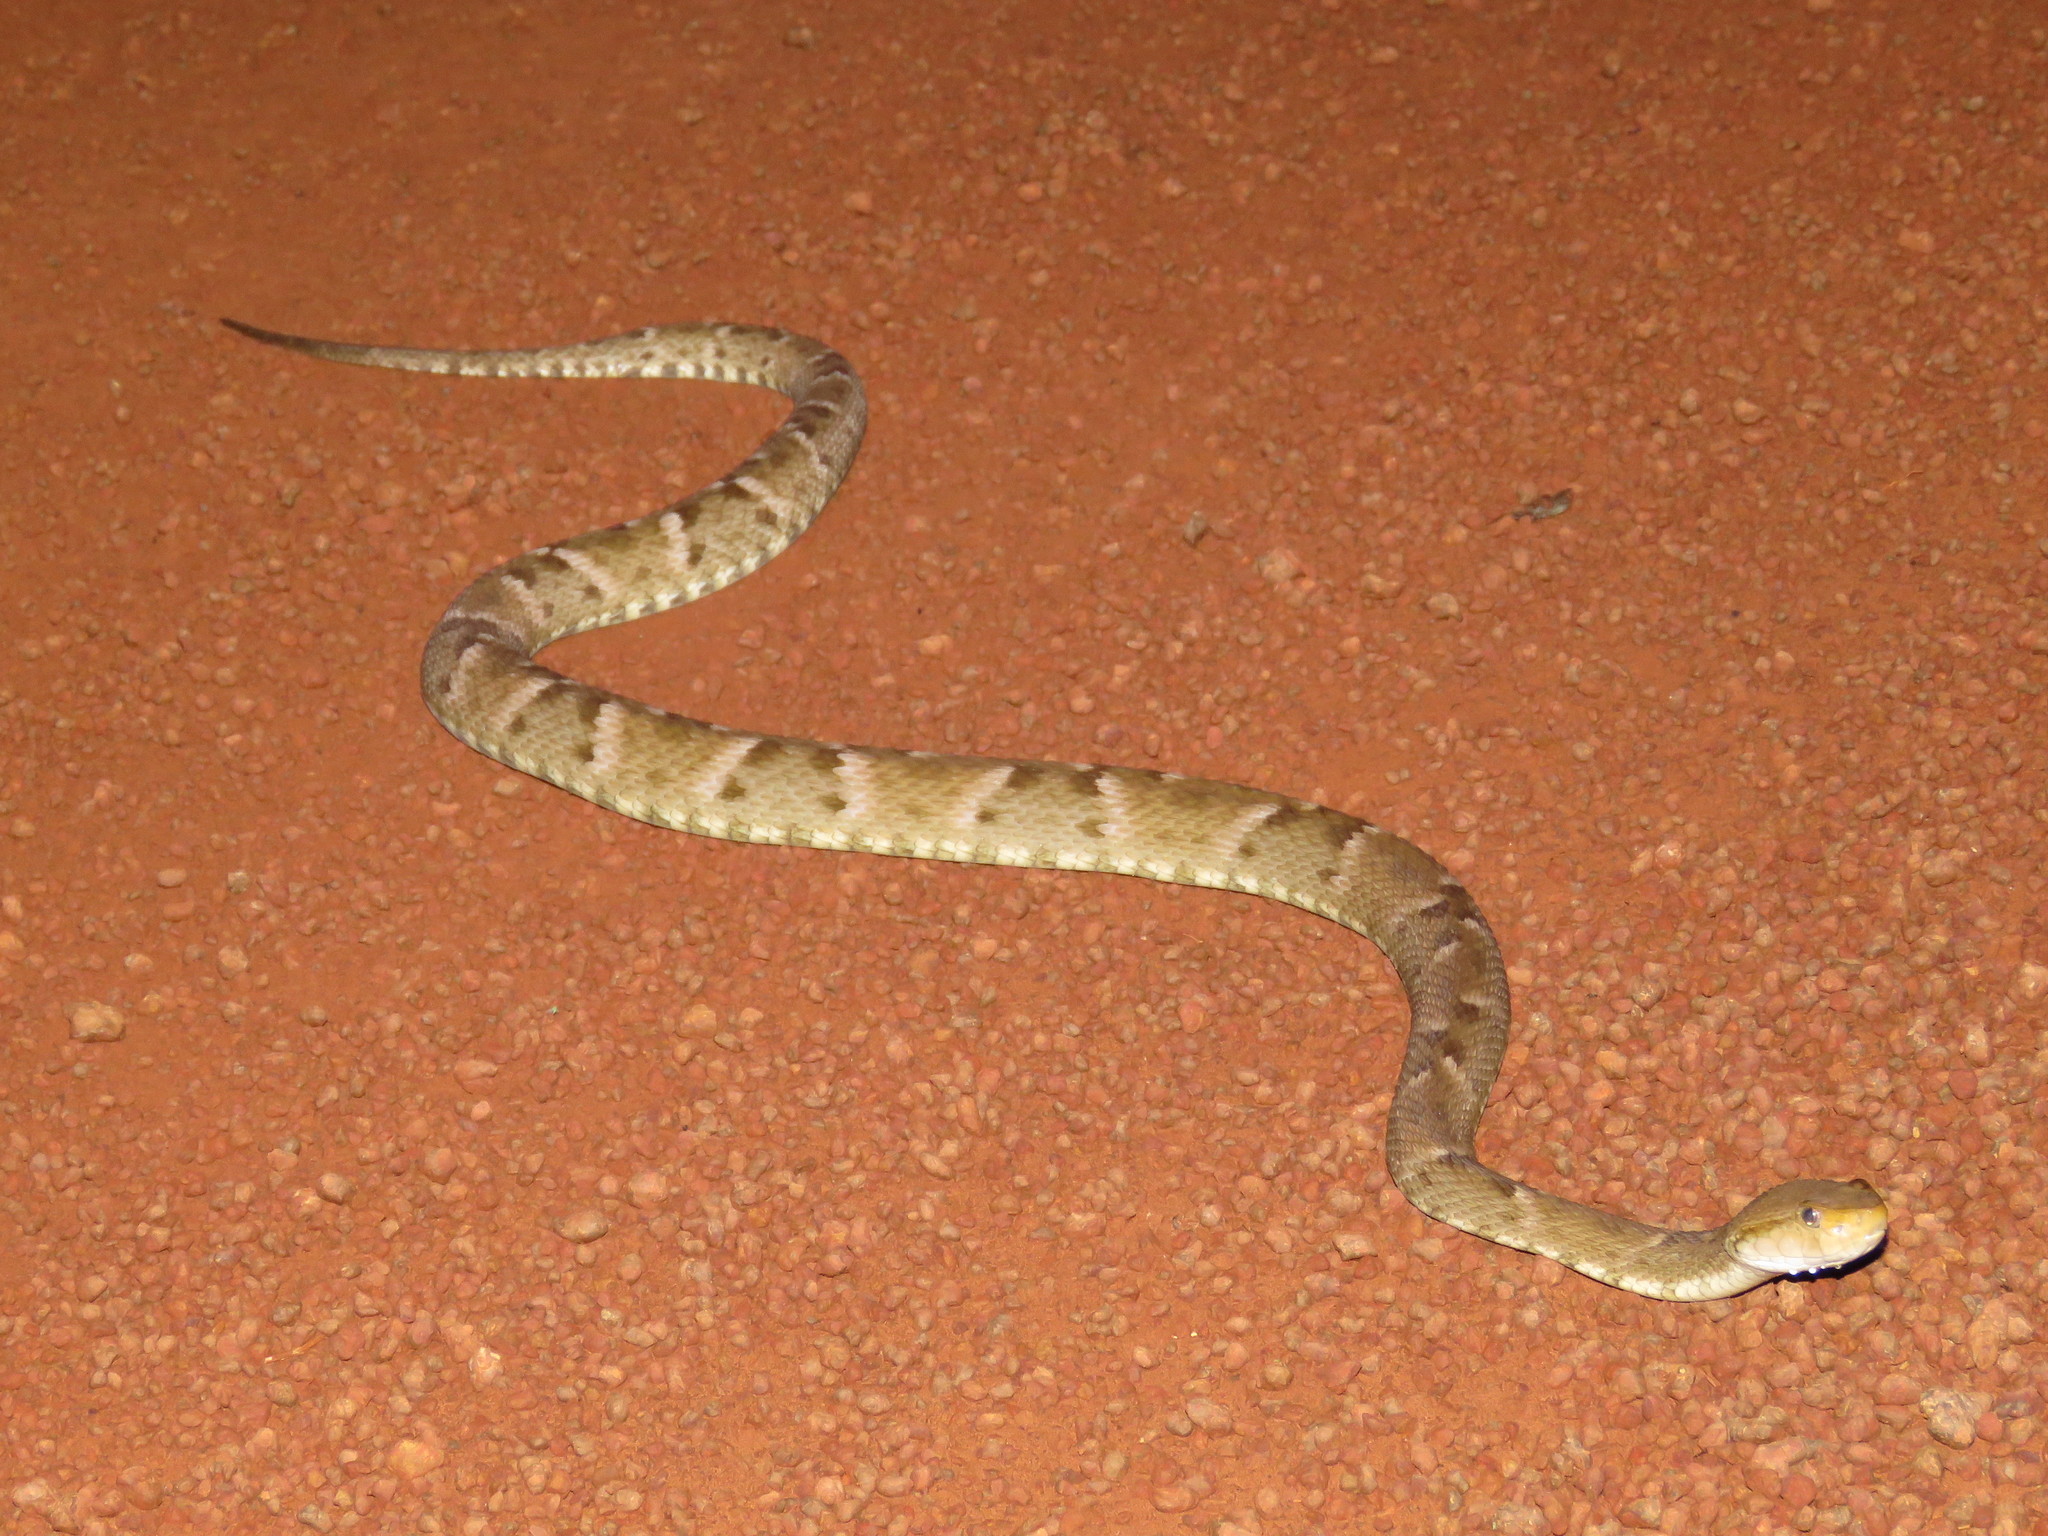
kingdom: Animalia
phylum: Chordata
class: Squamata
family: Viperidae
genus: Bothrops
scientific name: Bothrops atrox
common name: Common lancehead
